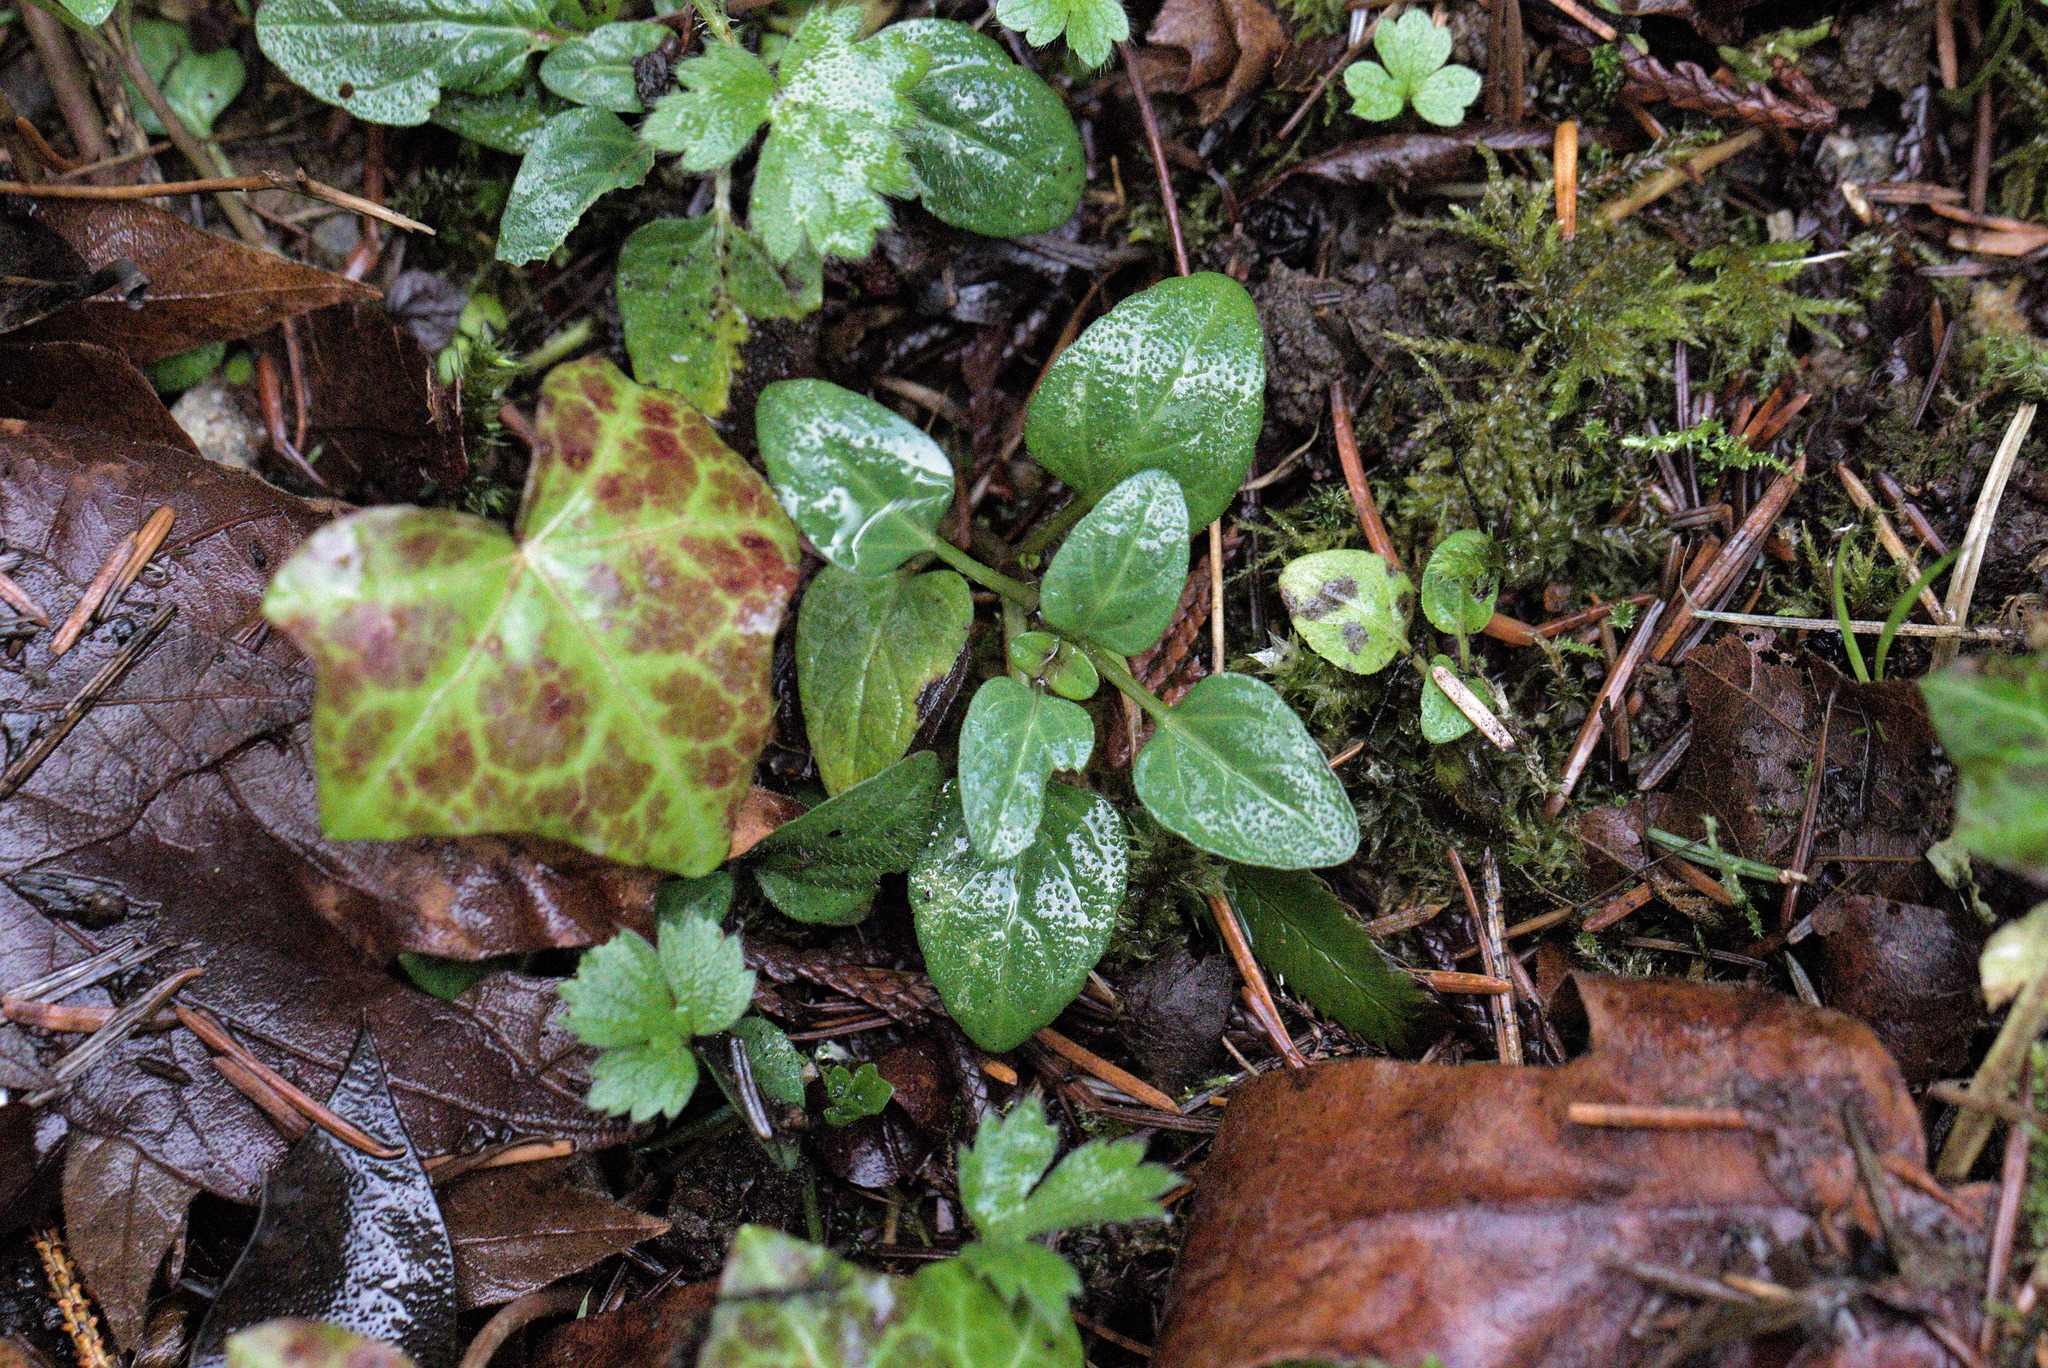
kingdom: Plantae
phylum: Tracheophyta
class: Magnoliopsida
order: Lamiales
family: Lamiaceae
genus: Prunella
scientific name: Prunella vulgaris
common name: Heal-all
